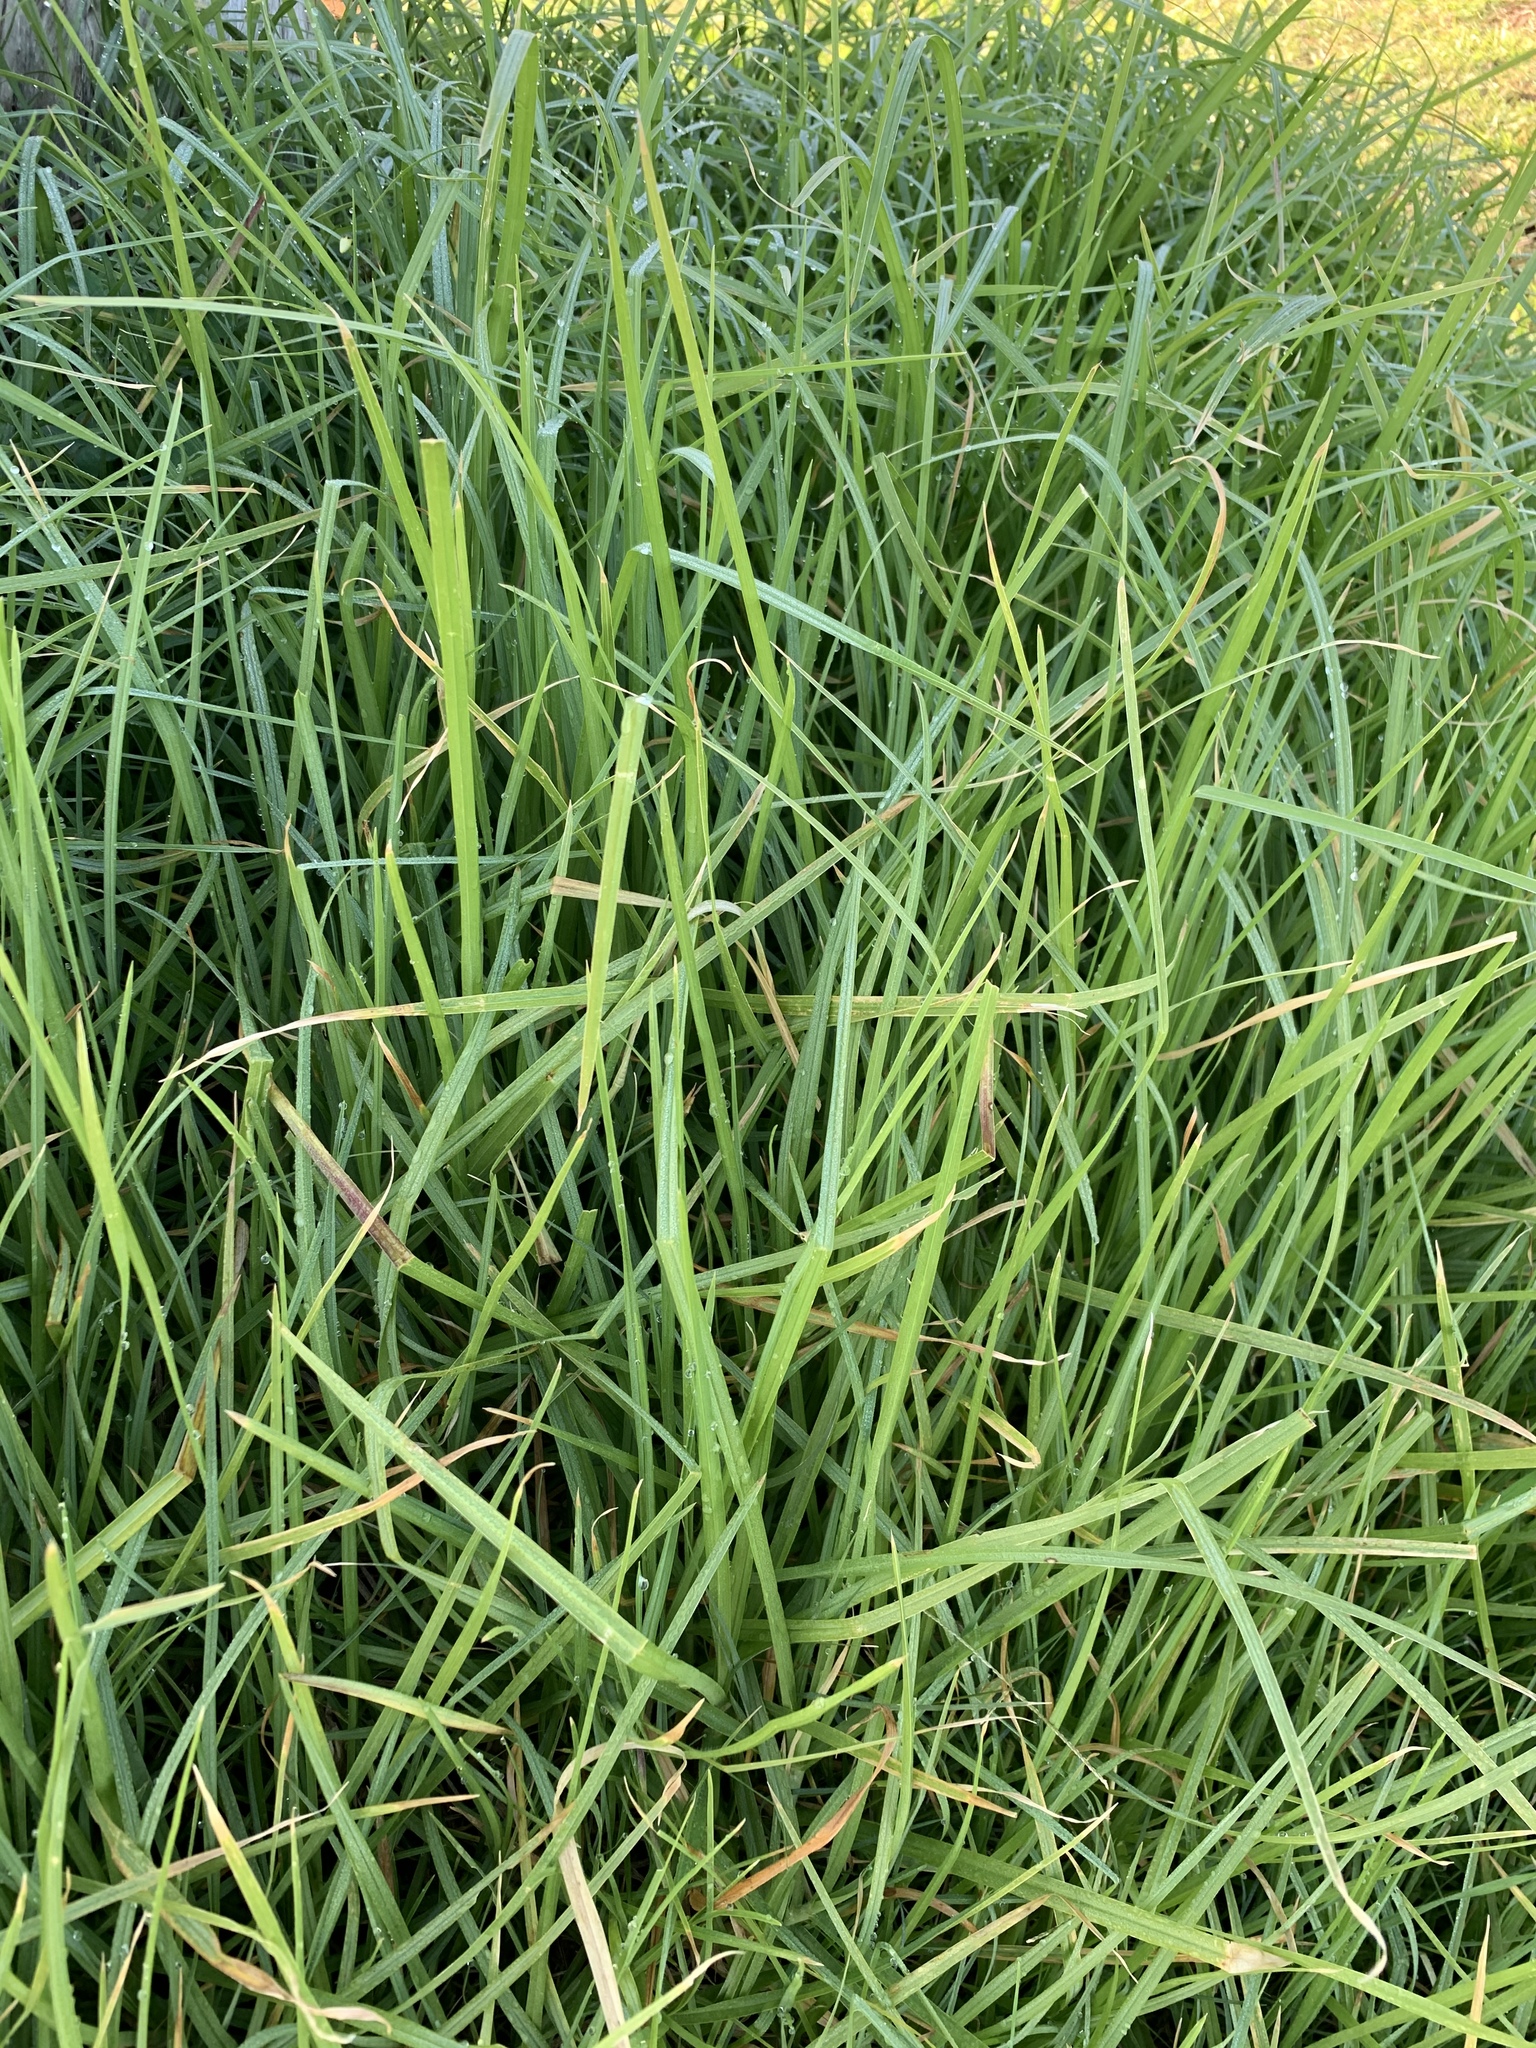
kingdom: Plantae
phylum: Tracheophyta
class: Liliopsida
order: Poales
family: Poaceae
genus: Cenchrus
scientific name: Cenchrus clandestinus
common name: Kikuyugrass
